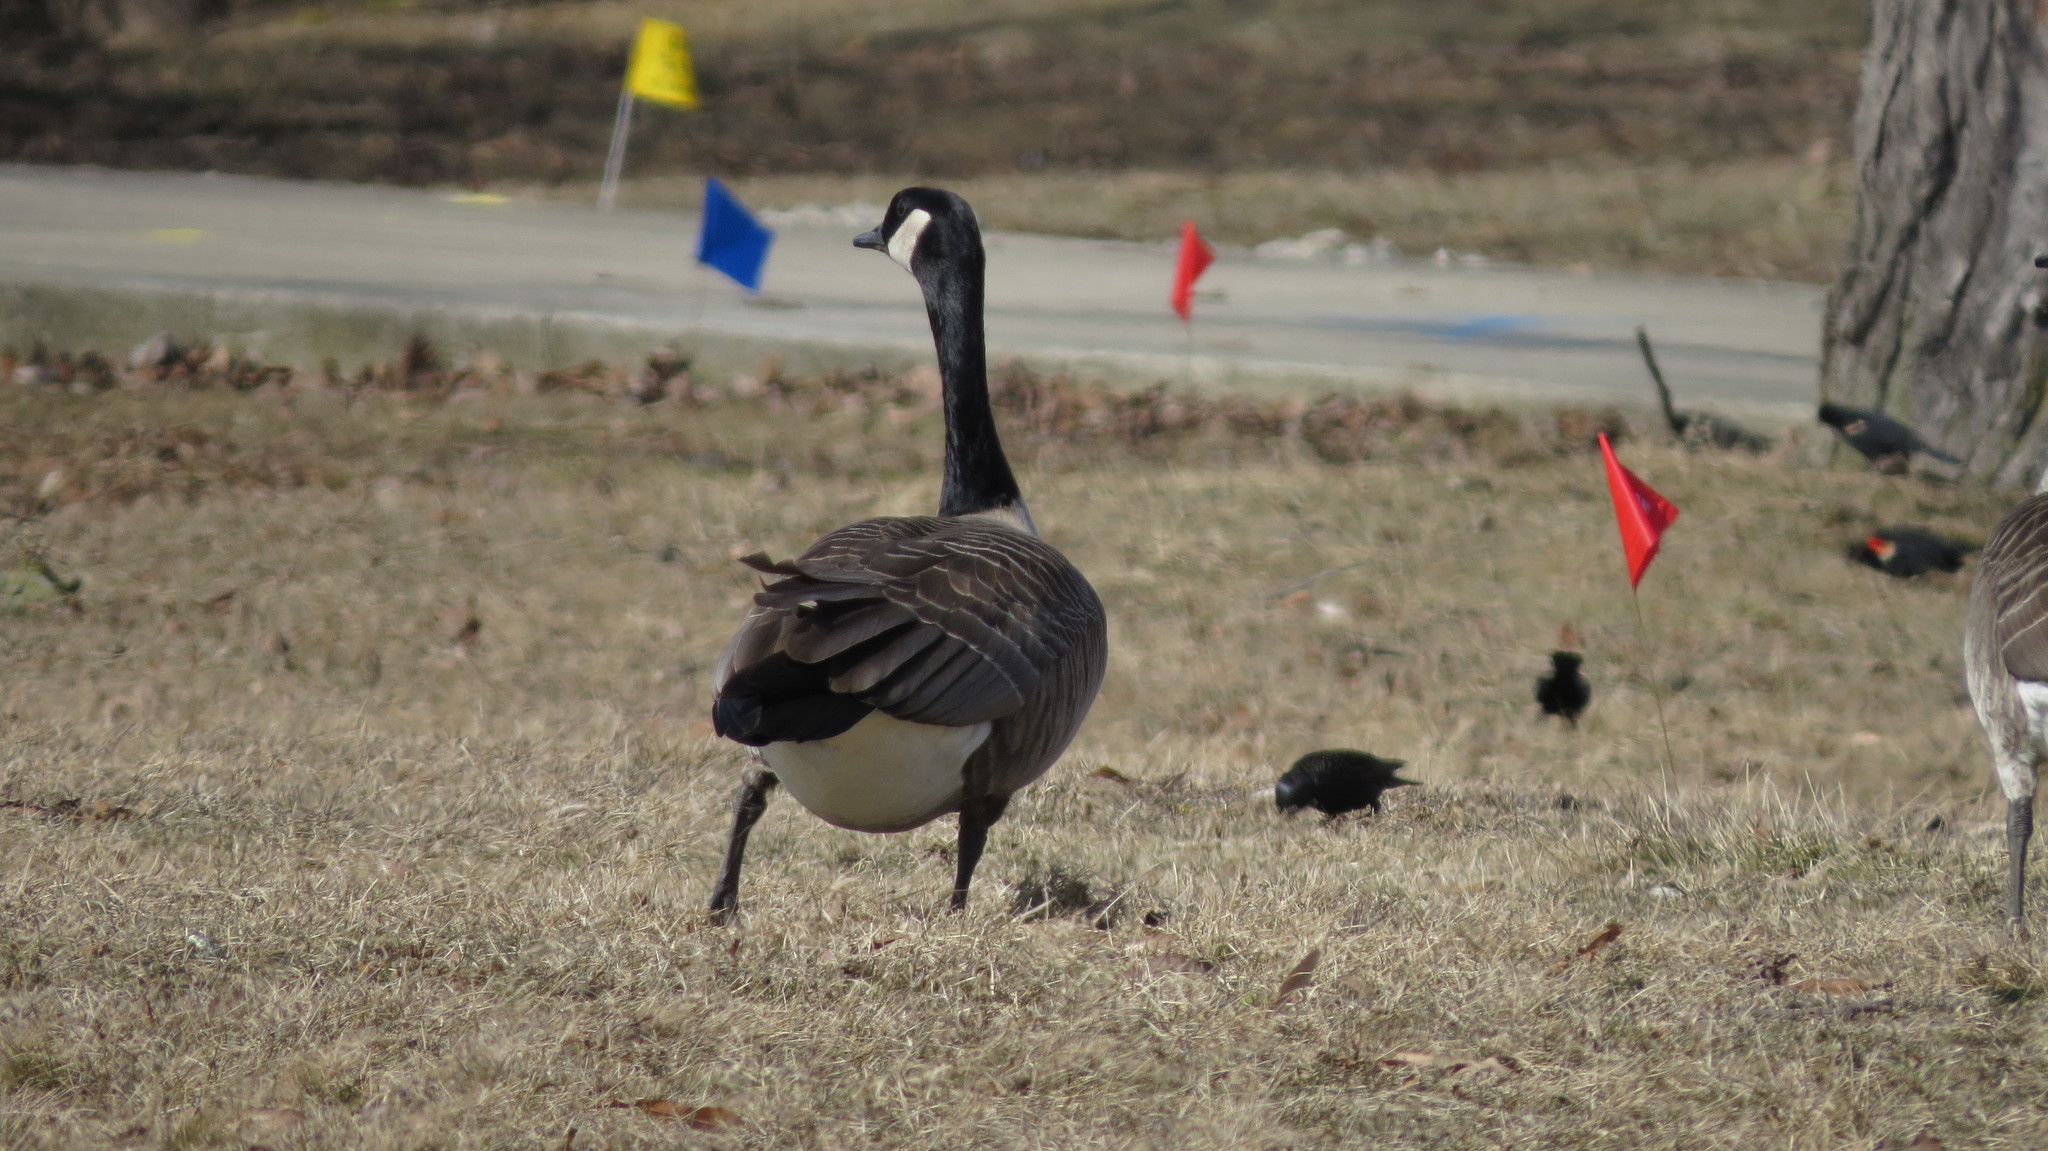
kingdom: Animalia
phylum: Chordata
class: Aves
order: Anseriformes
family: Anatidae
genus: Branta
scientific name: Branta canadensis
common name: Canada goose
